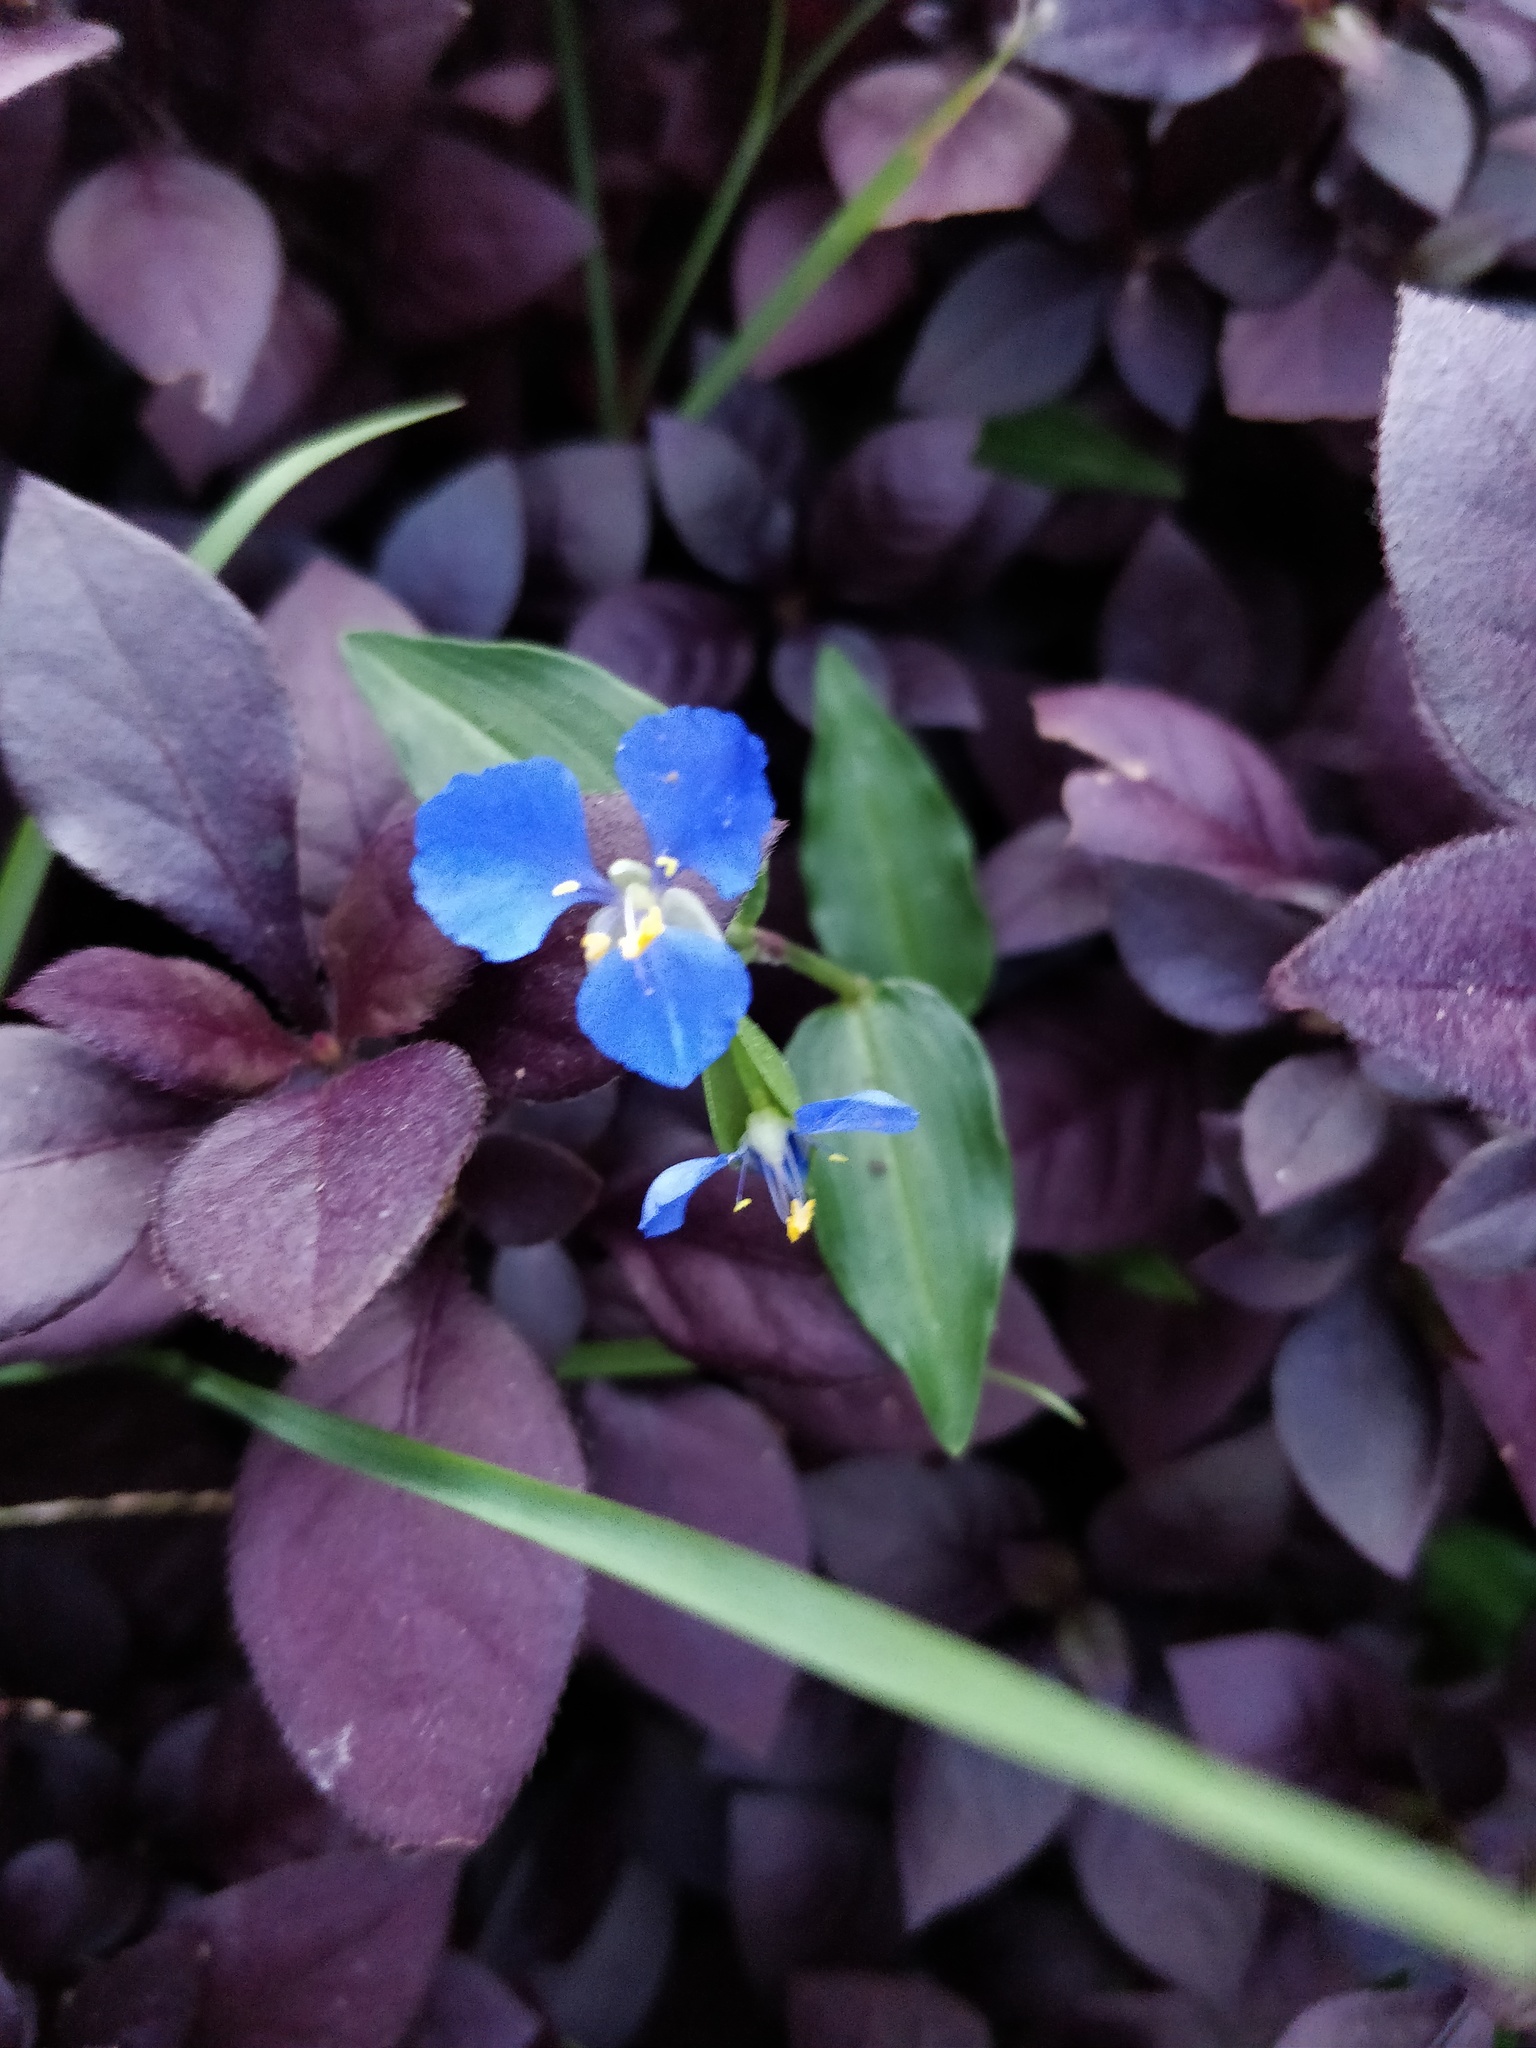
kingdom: Plantae
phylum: Tracheophyta
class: Liliopsida
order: Commelinales
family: Commelinaceae
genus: Commelina
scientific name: Commelina cyanea
